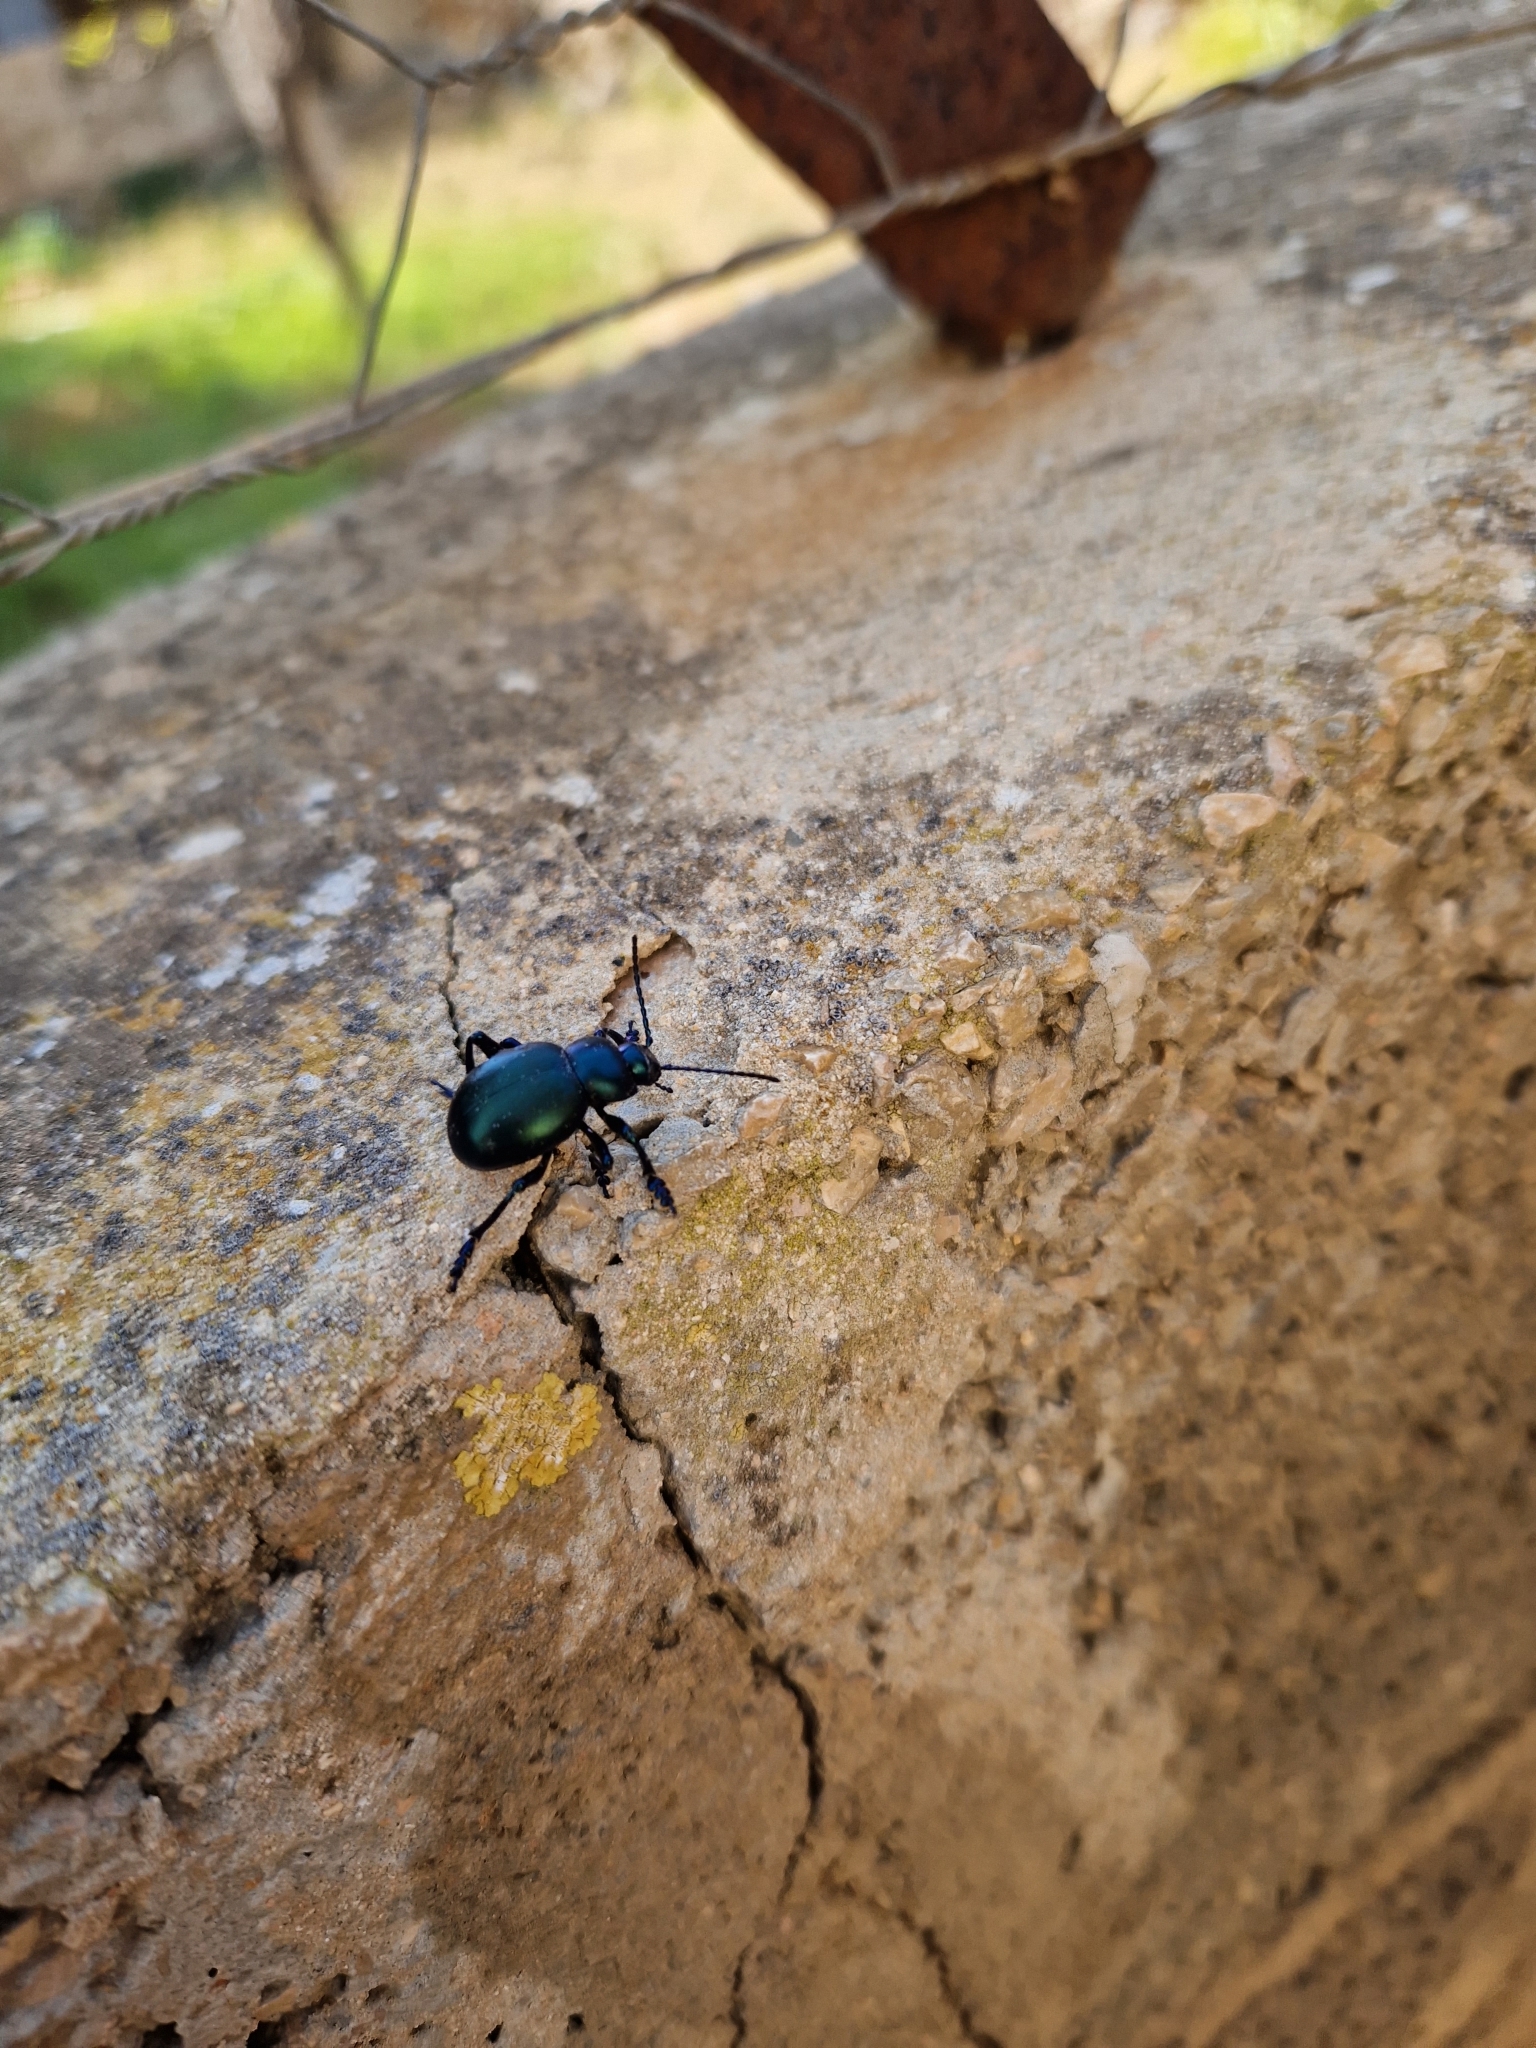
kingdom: Animalia
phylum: Arthropoda
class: Insecta
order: Coleoptera
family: Chrysomelidae
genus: Timarcha
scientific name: Timarcha tenebricosa
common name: Bloody-nosed beetle
